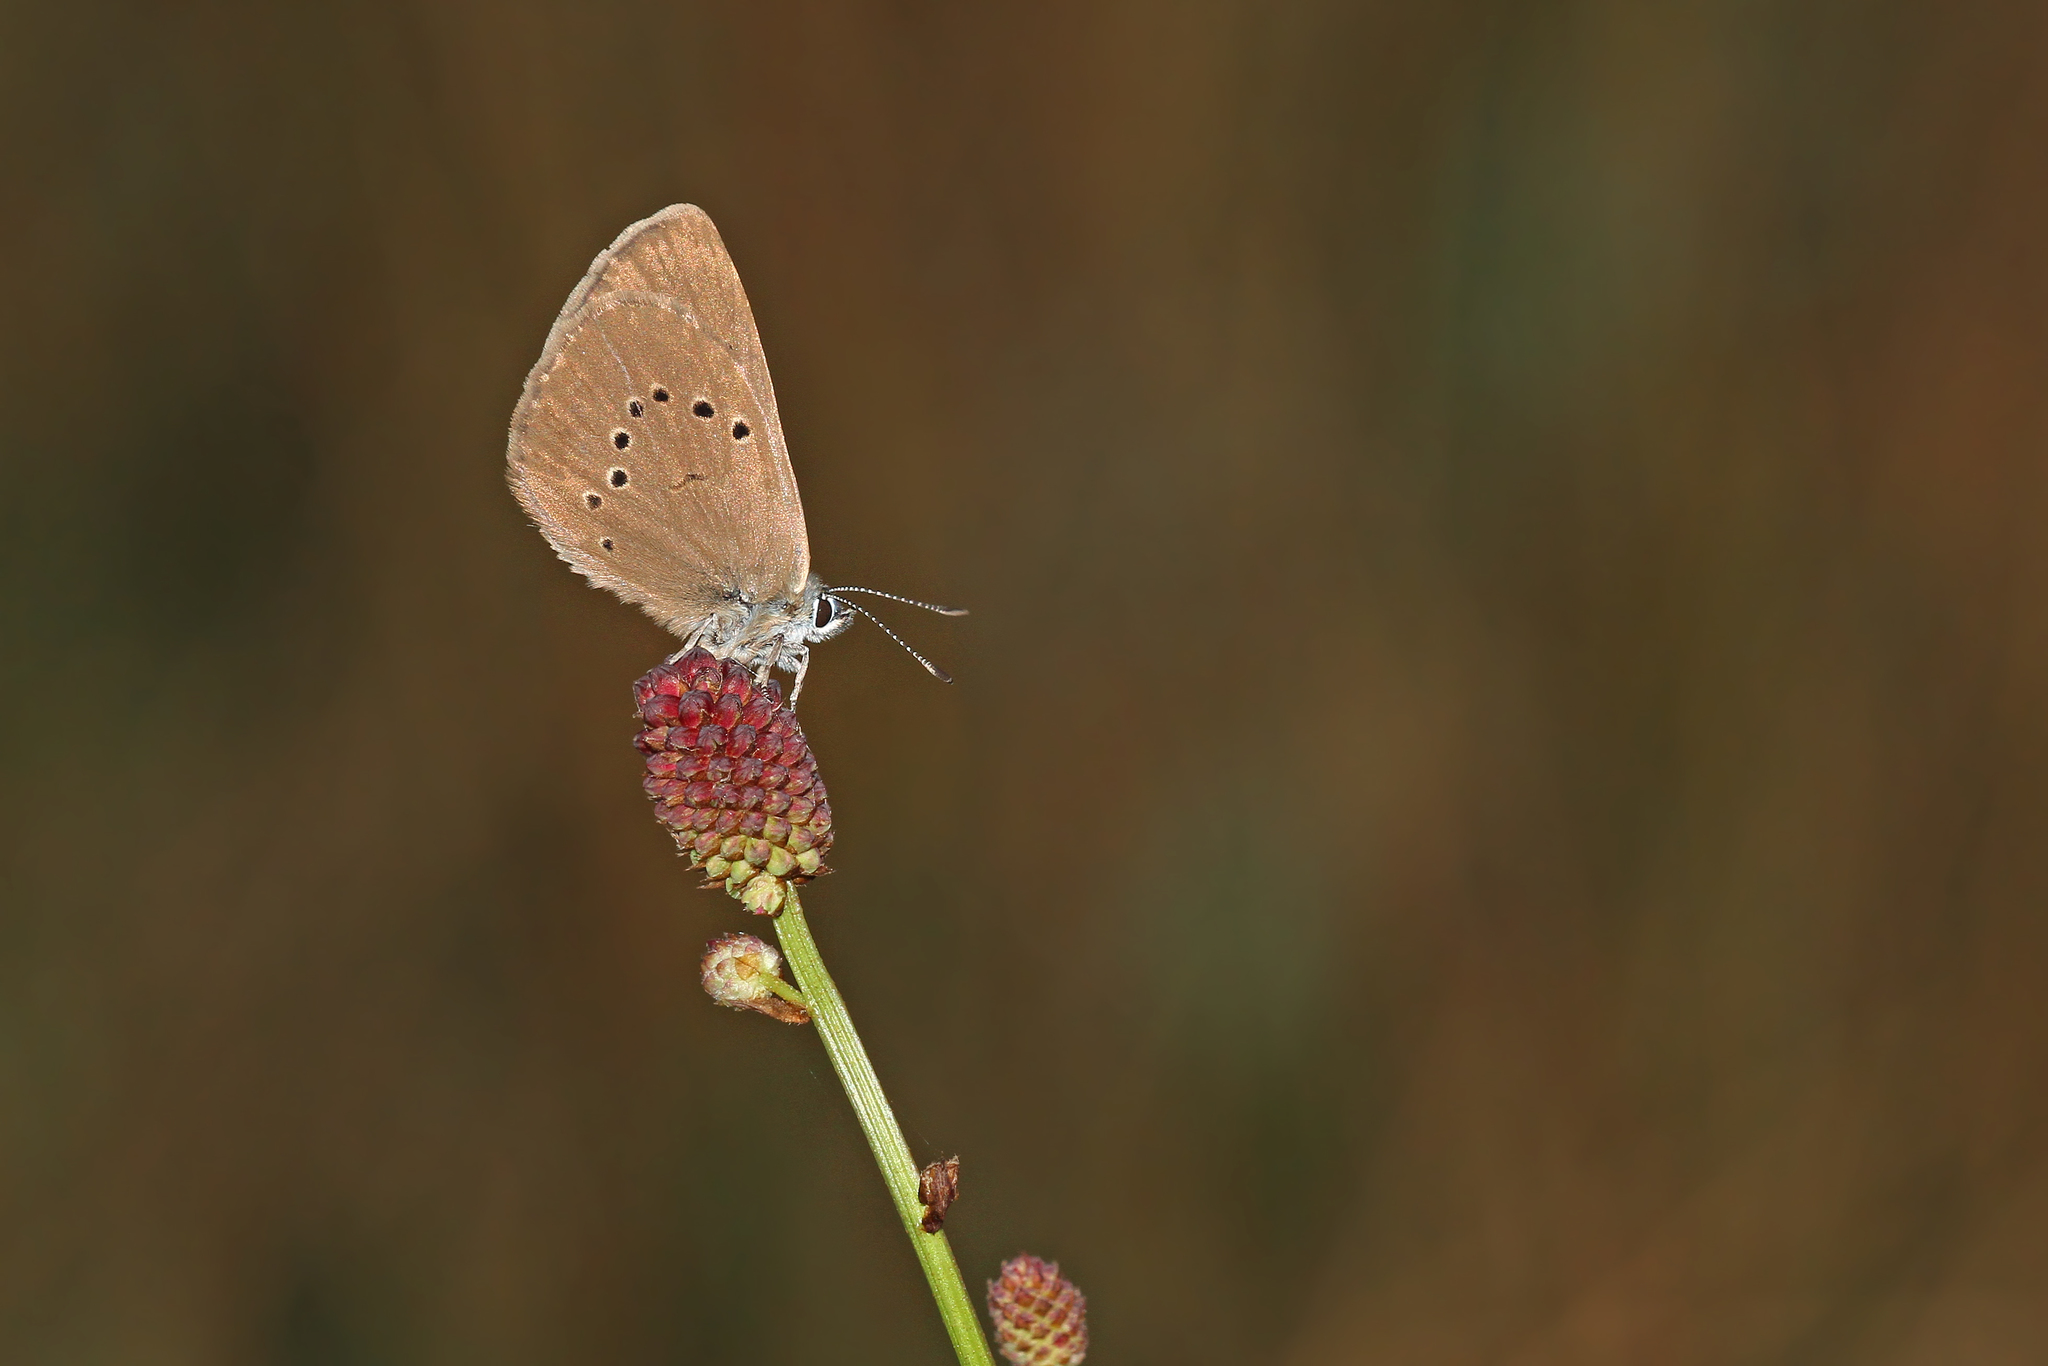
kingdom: Animalia
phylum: Arthropoda
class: Insecta
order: Lepidoptera
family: Lycaenidae
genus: Maculinea
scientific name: Maculinea nausithous
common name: Dusky large blue
